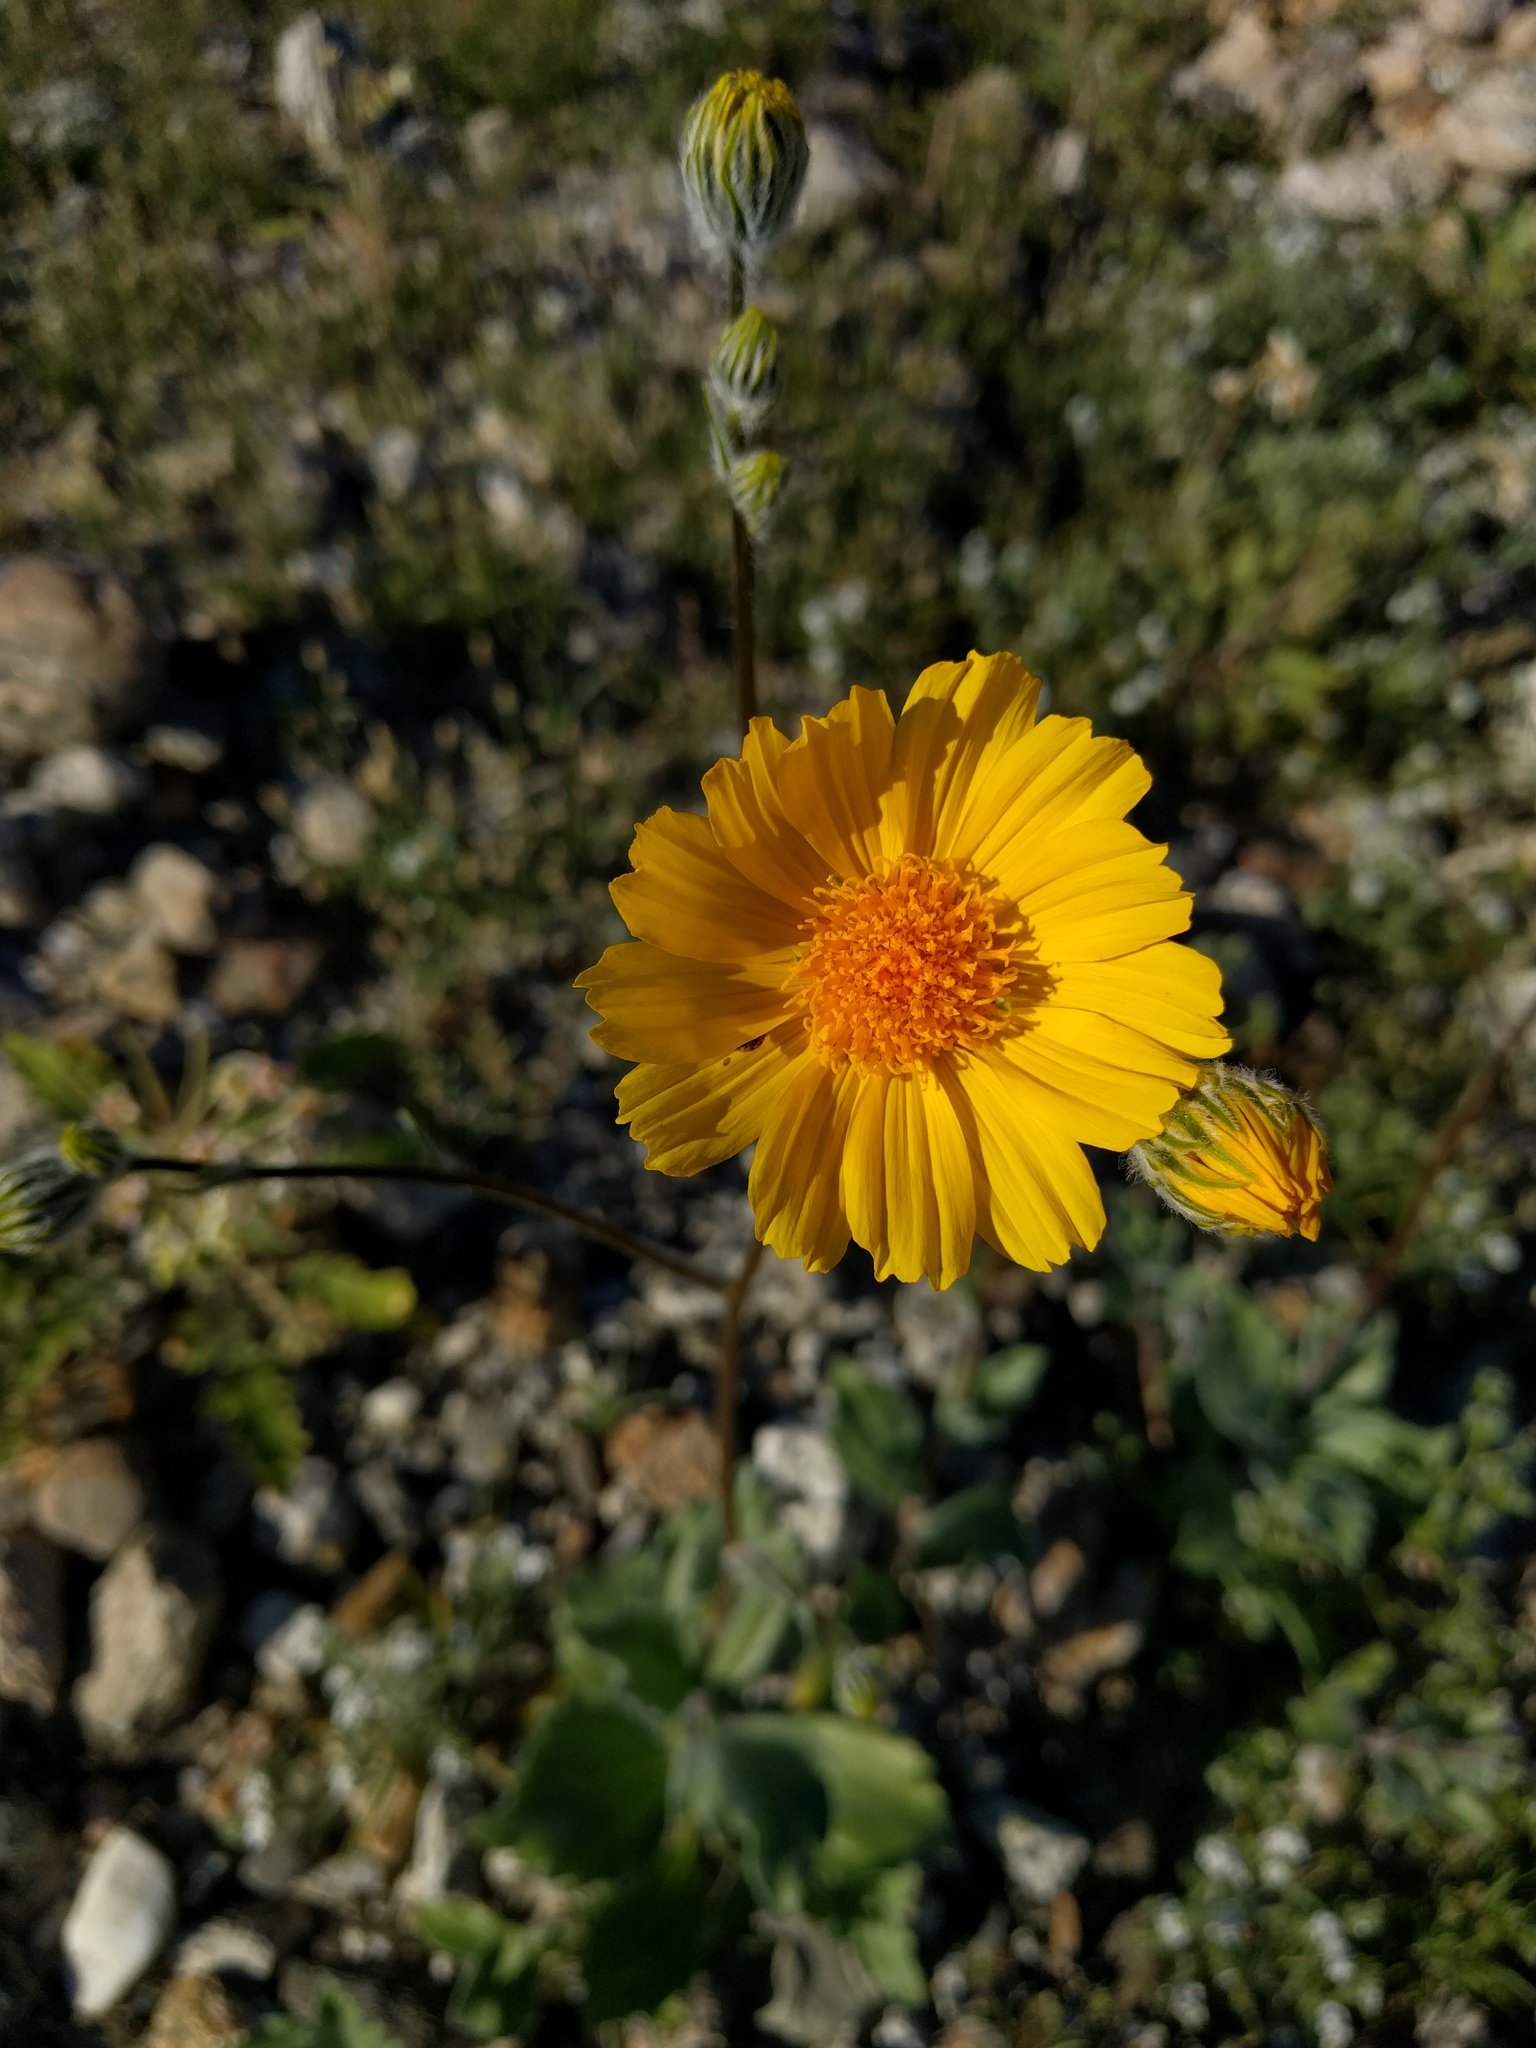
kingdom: Plantae
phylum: Tracheophyta
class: Magnoliopsida
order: Asterales
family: Asteraceae
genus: Geraea
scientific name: Geraea canescens
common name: Desert-gold
